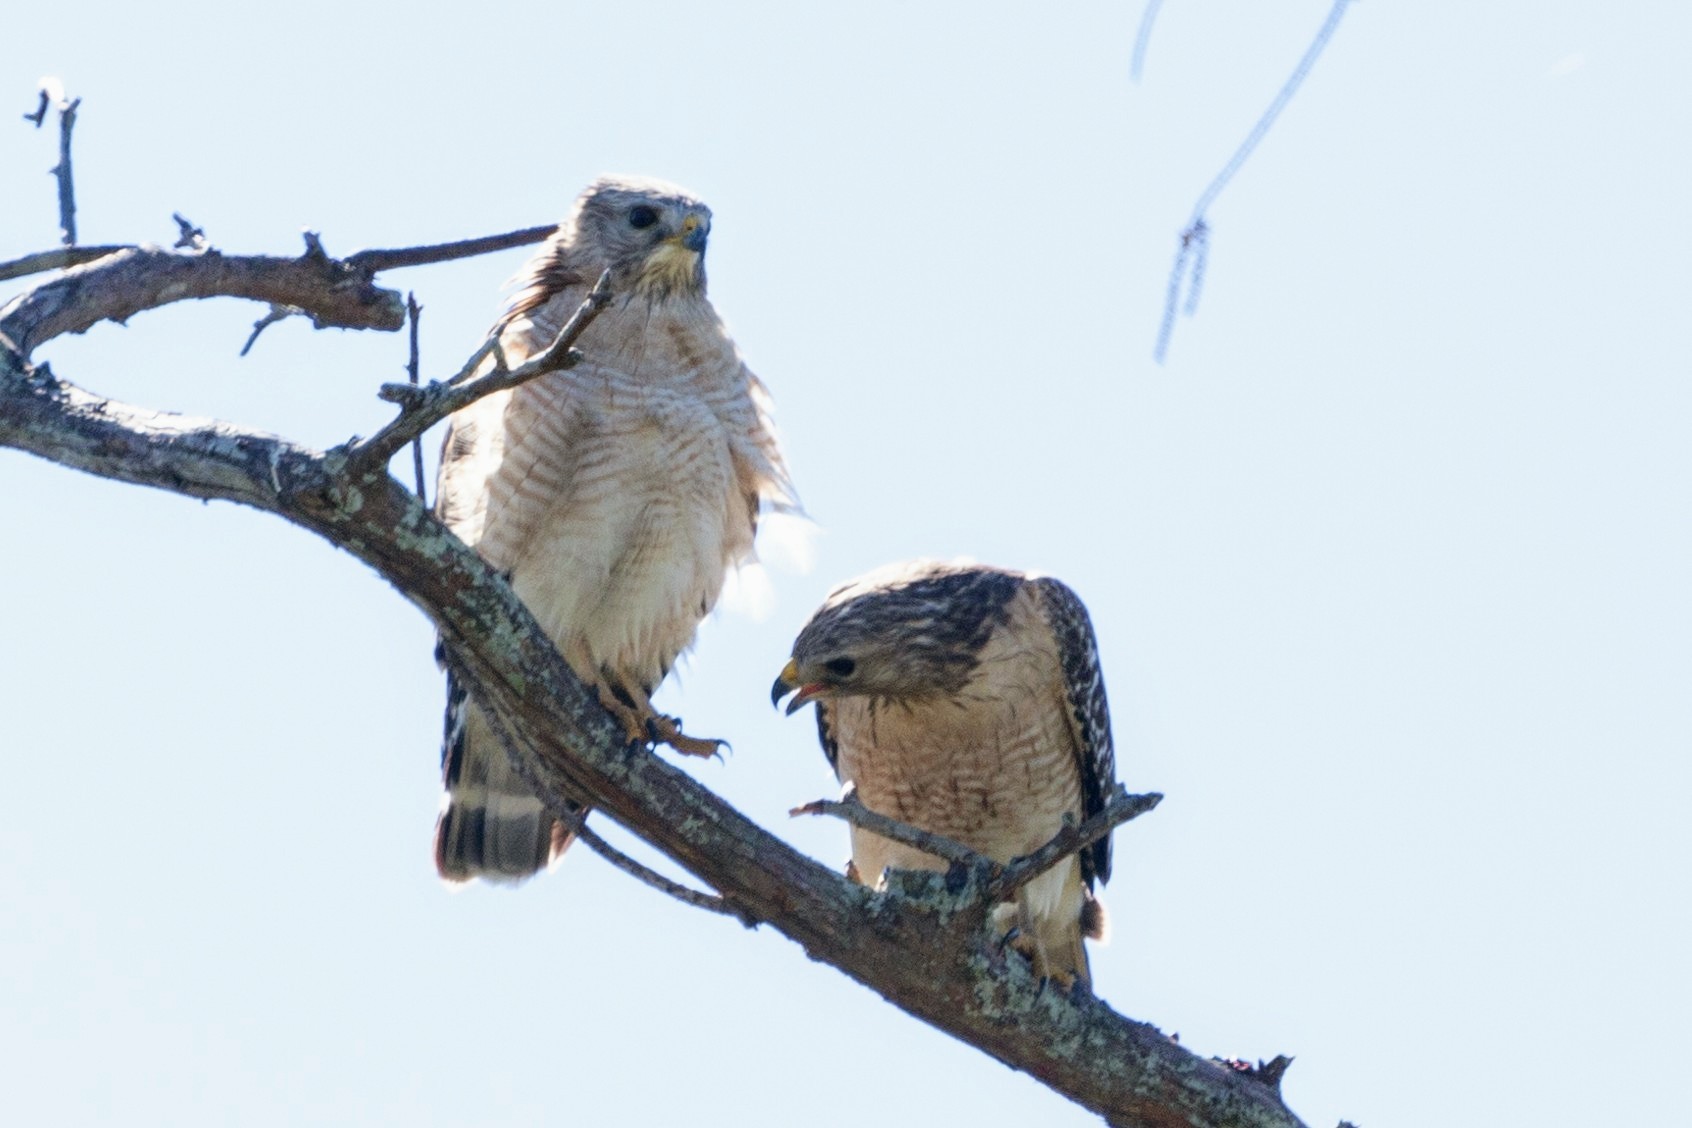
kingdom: Animalia
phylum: Chordata
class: Aves
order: Accipitriformes
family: Accipitridae
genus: Buteo
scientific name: Buteo lineatus
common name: Red-shouldered hawk
